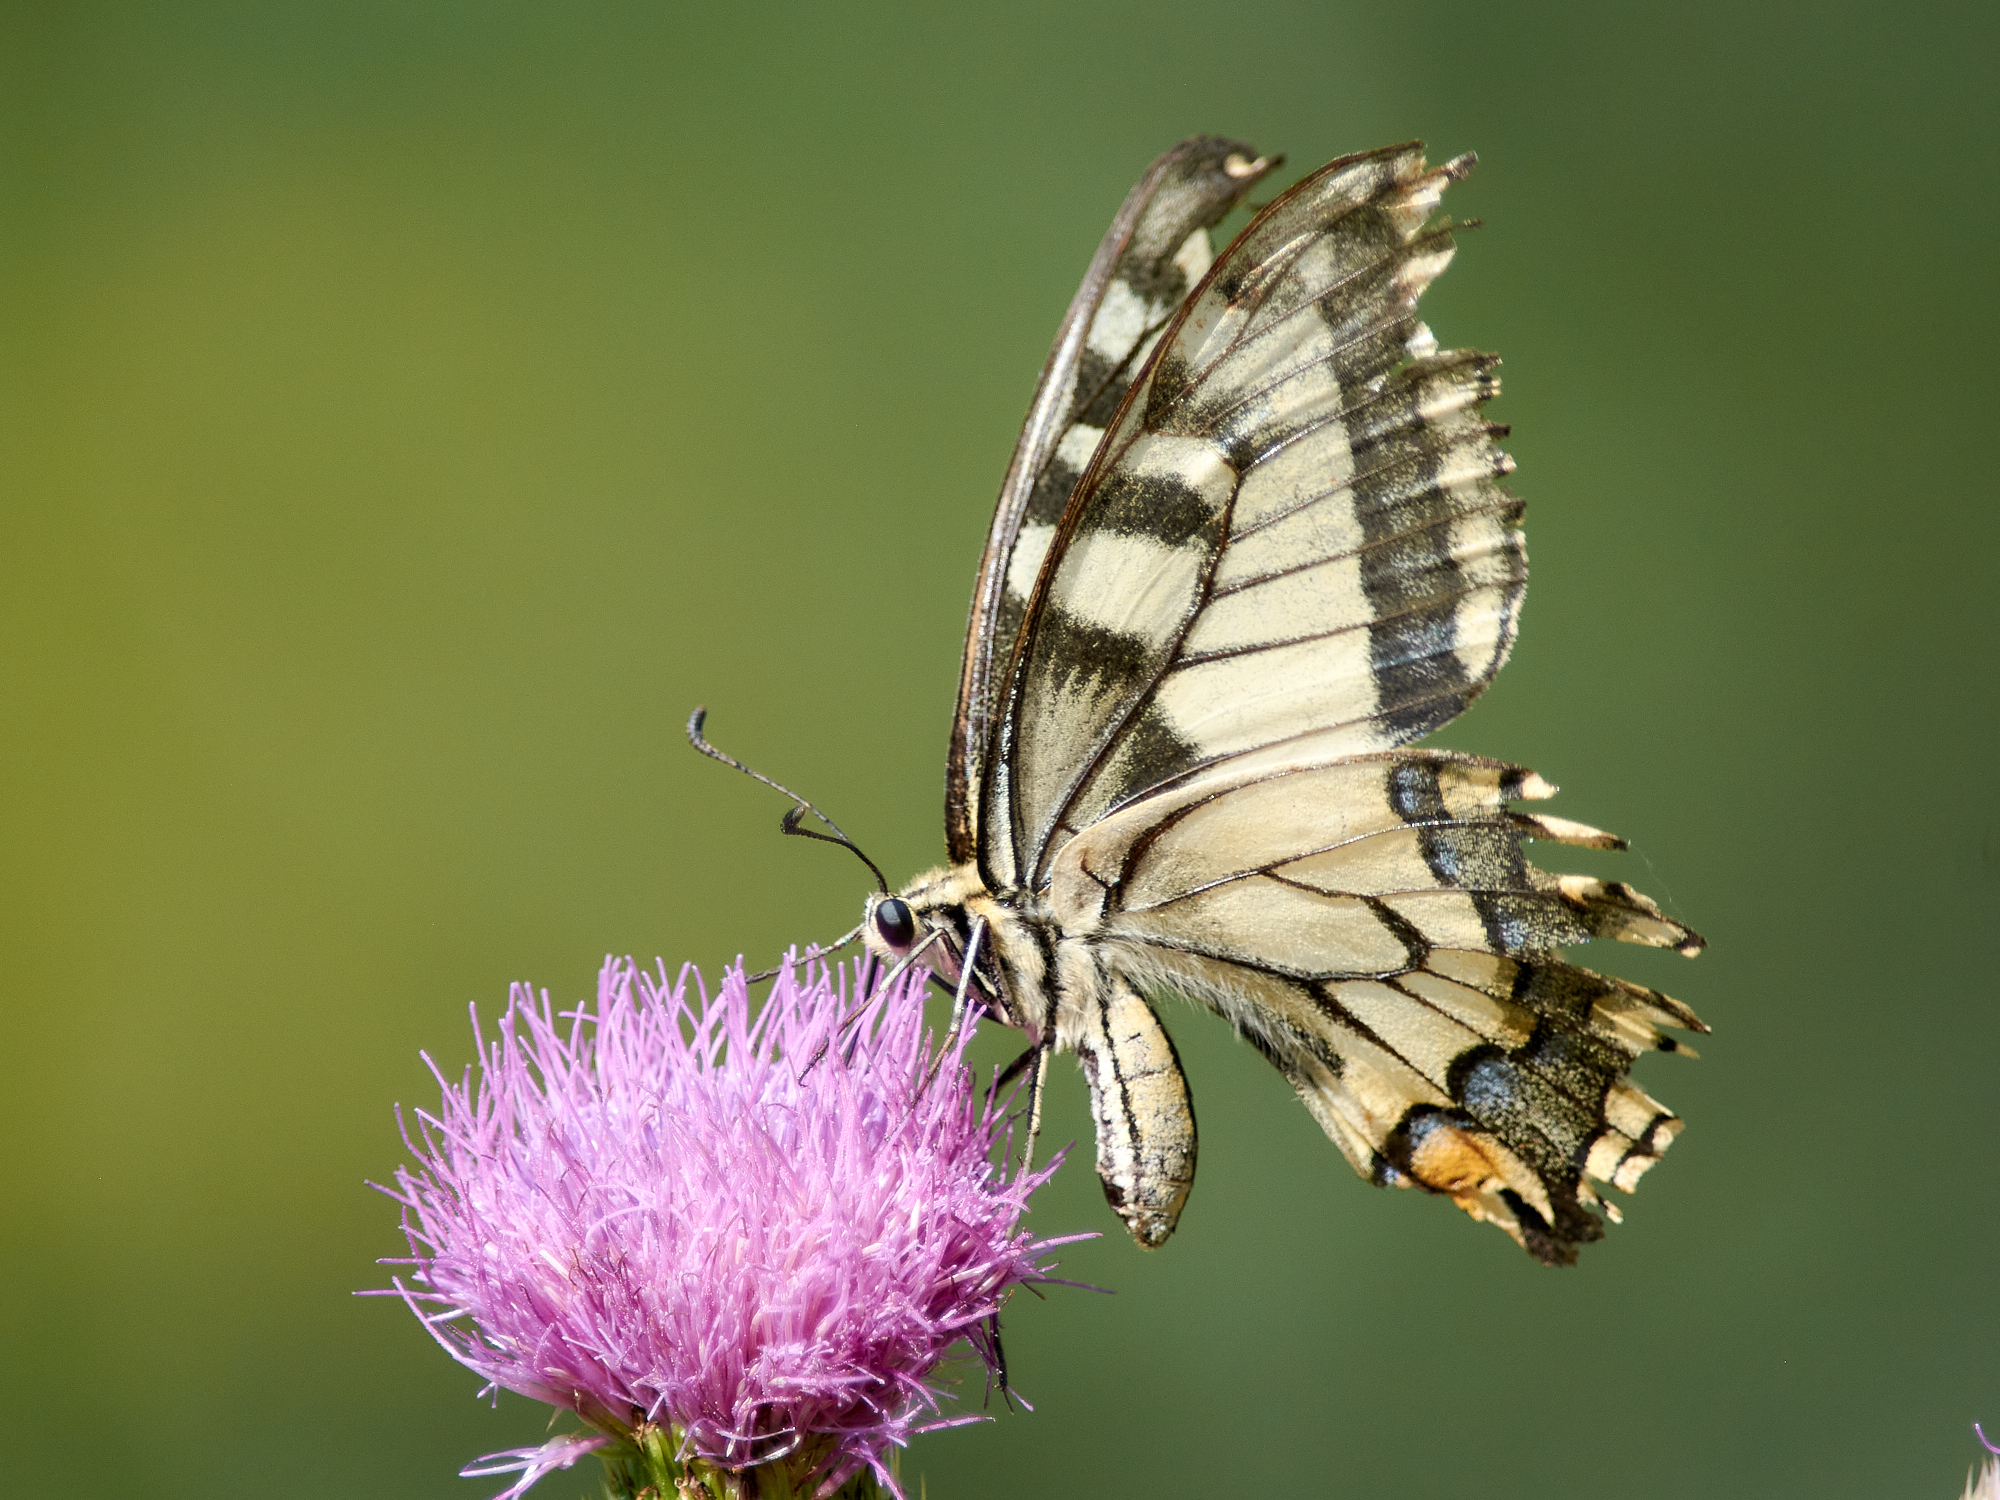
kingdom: Animalia
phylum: Arthropoda
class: Insecta
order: Lepidoptera
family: Papilionidae
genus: Papilio
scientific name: Papilio machaon
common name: Swallowtail
